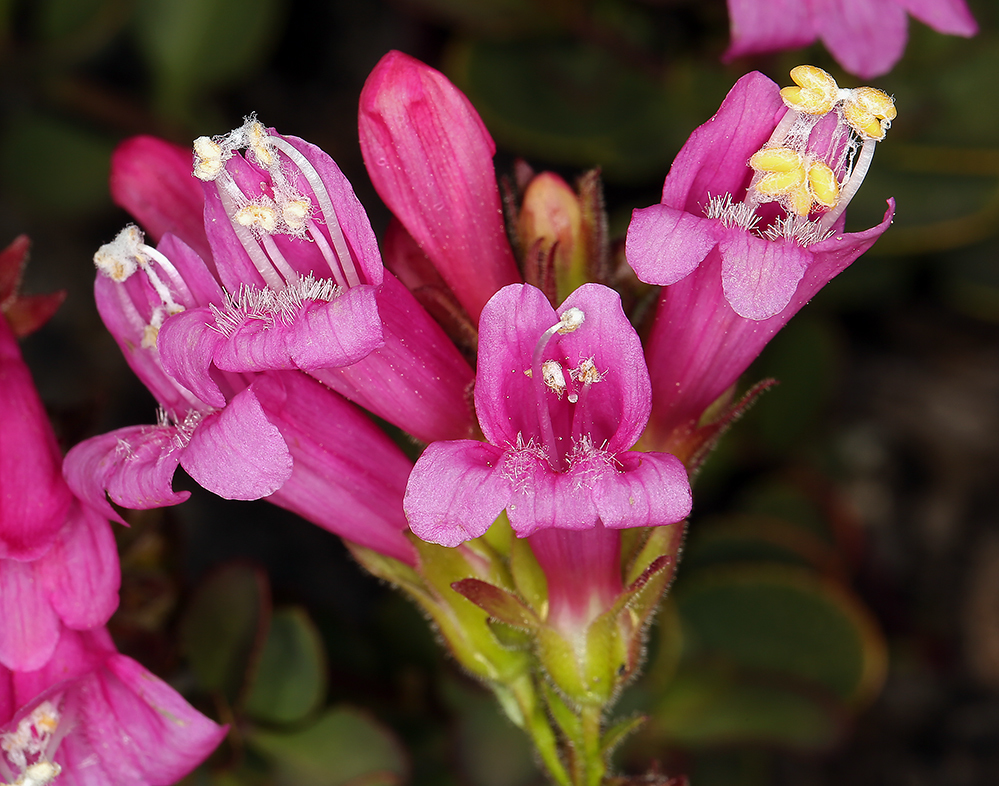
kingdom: Plantae
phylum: Tracheophyta
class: Magnoliopsida
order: Lamiales
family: Plantaginaceae
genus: Penstemon
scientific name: Penstemon newberryi
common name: Mountain-pride
